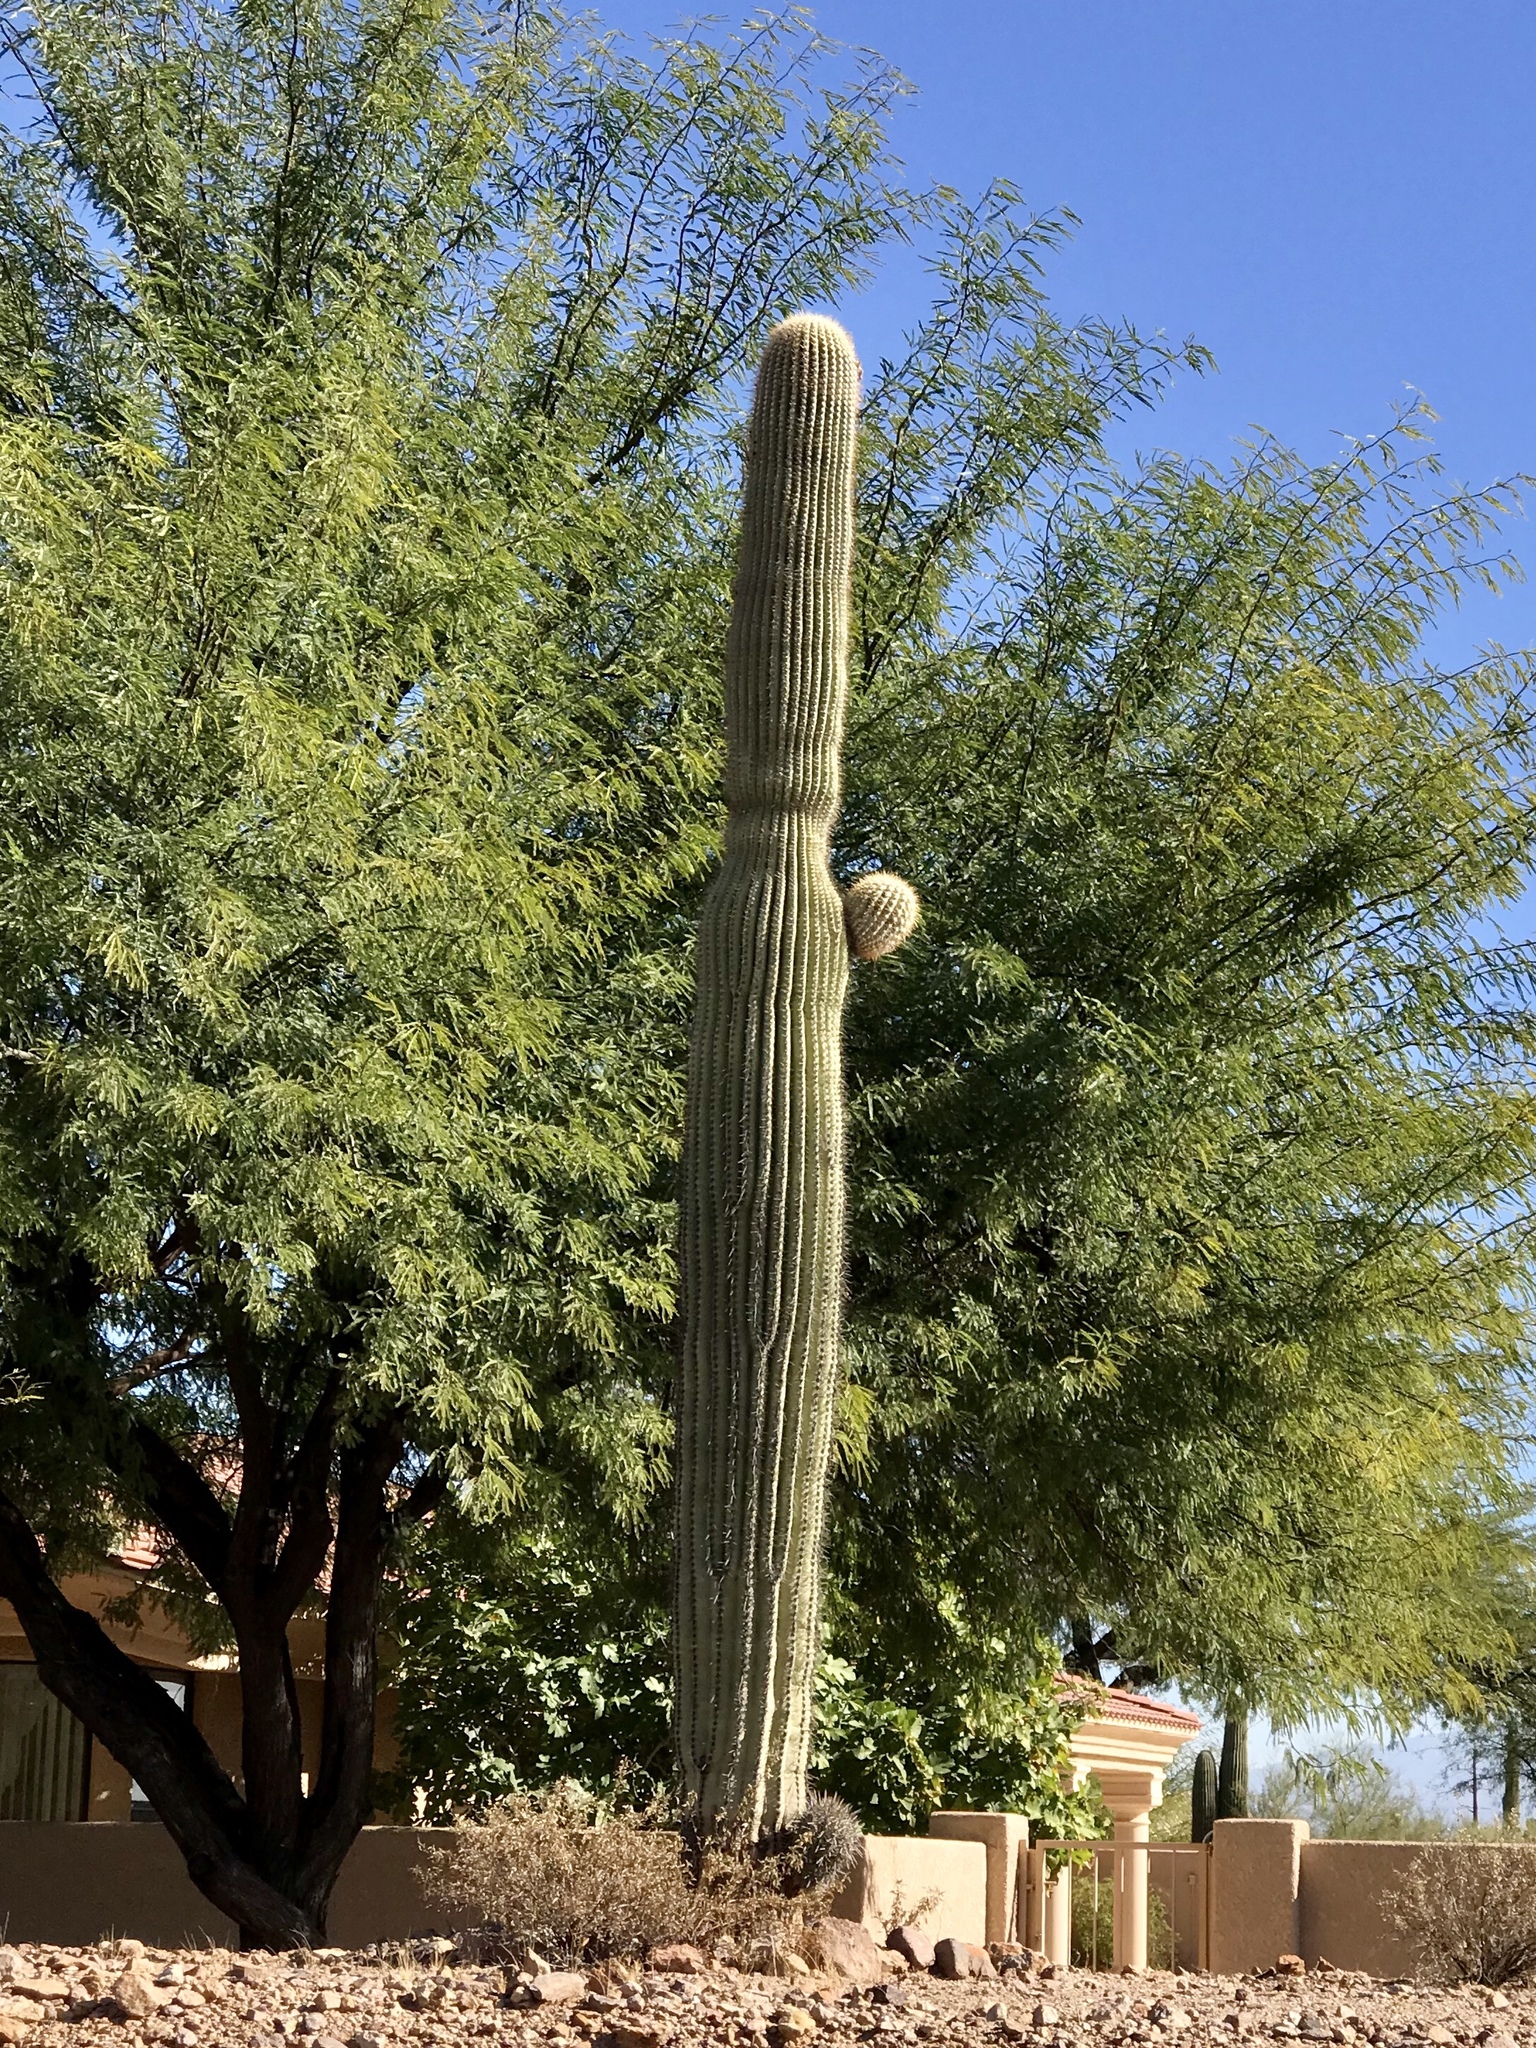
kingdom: Plantae
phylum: Tracheophyta
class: Magnoliopsida
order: Caryophyllales
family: Cactaceae
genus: Carnegiea
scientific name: Carnegiea gigantea
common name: Saguaro
